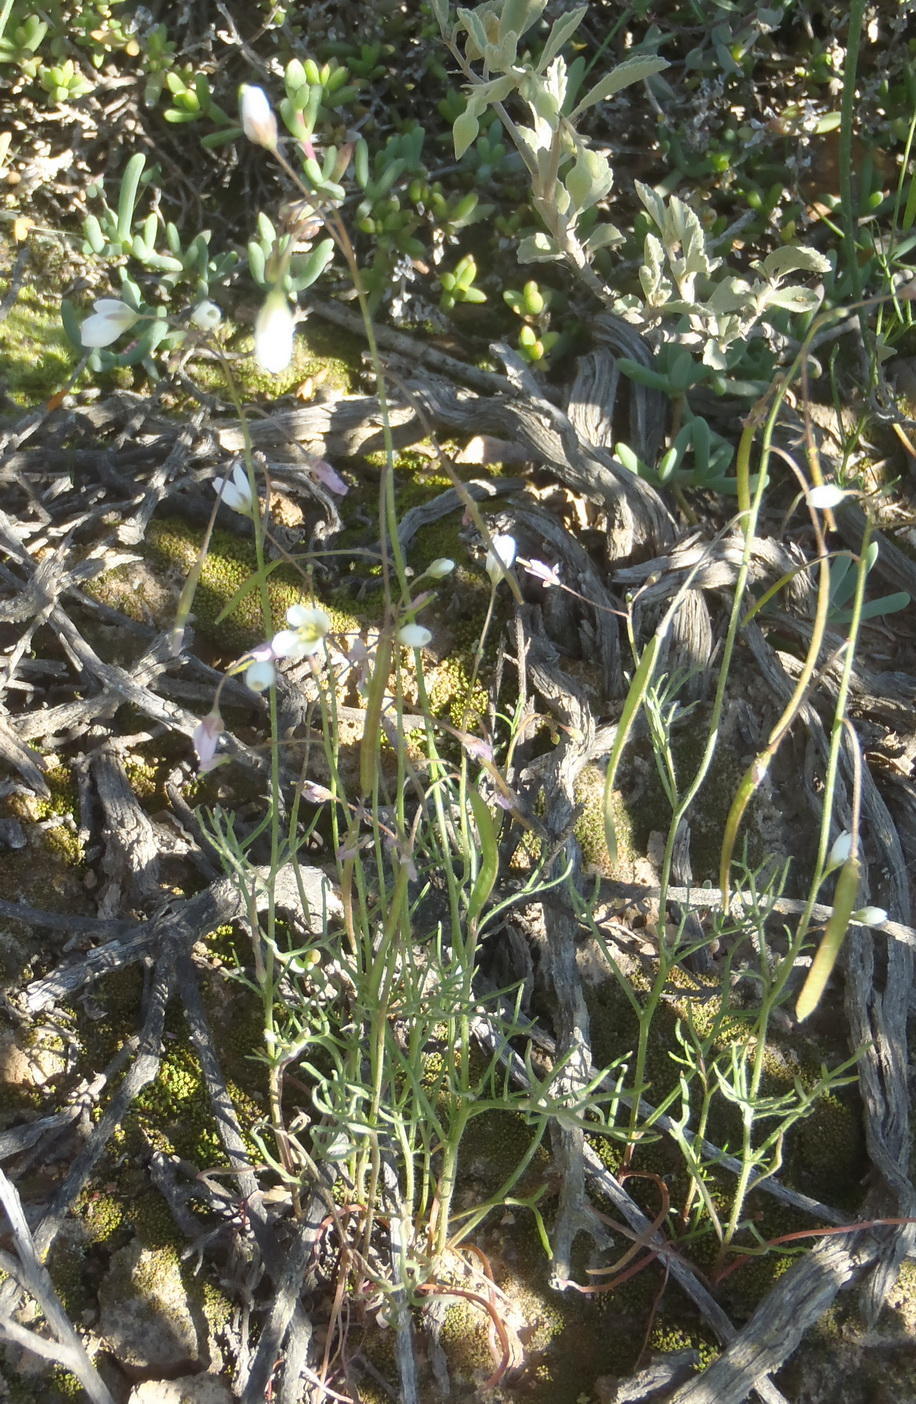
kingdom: Plantae
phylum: Tracheophyta
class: Magnoliopsida
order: Brassicales
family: Brassicaceae
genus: Heliophila
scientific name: Heliophila crithmifolia
